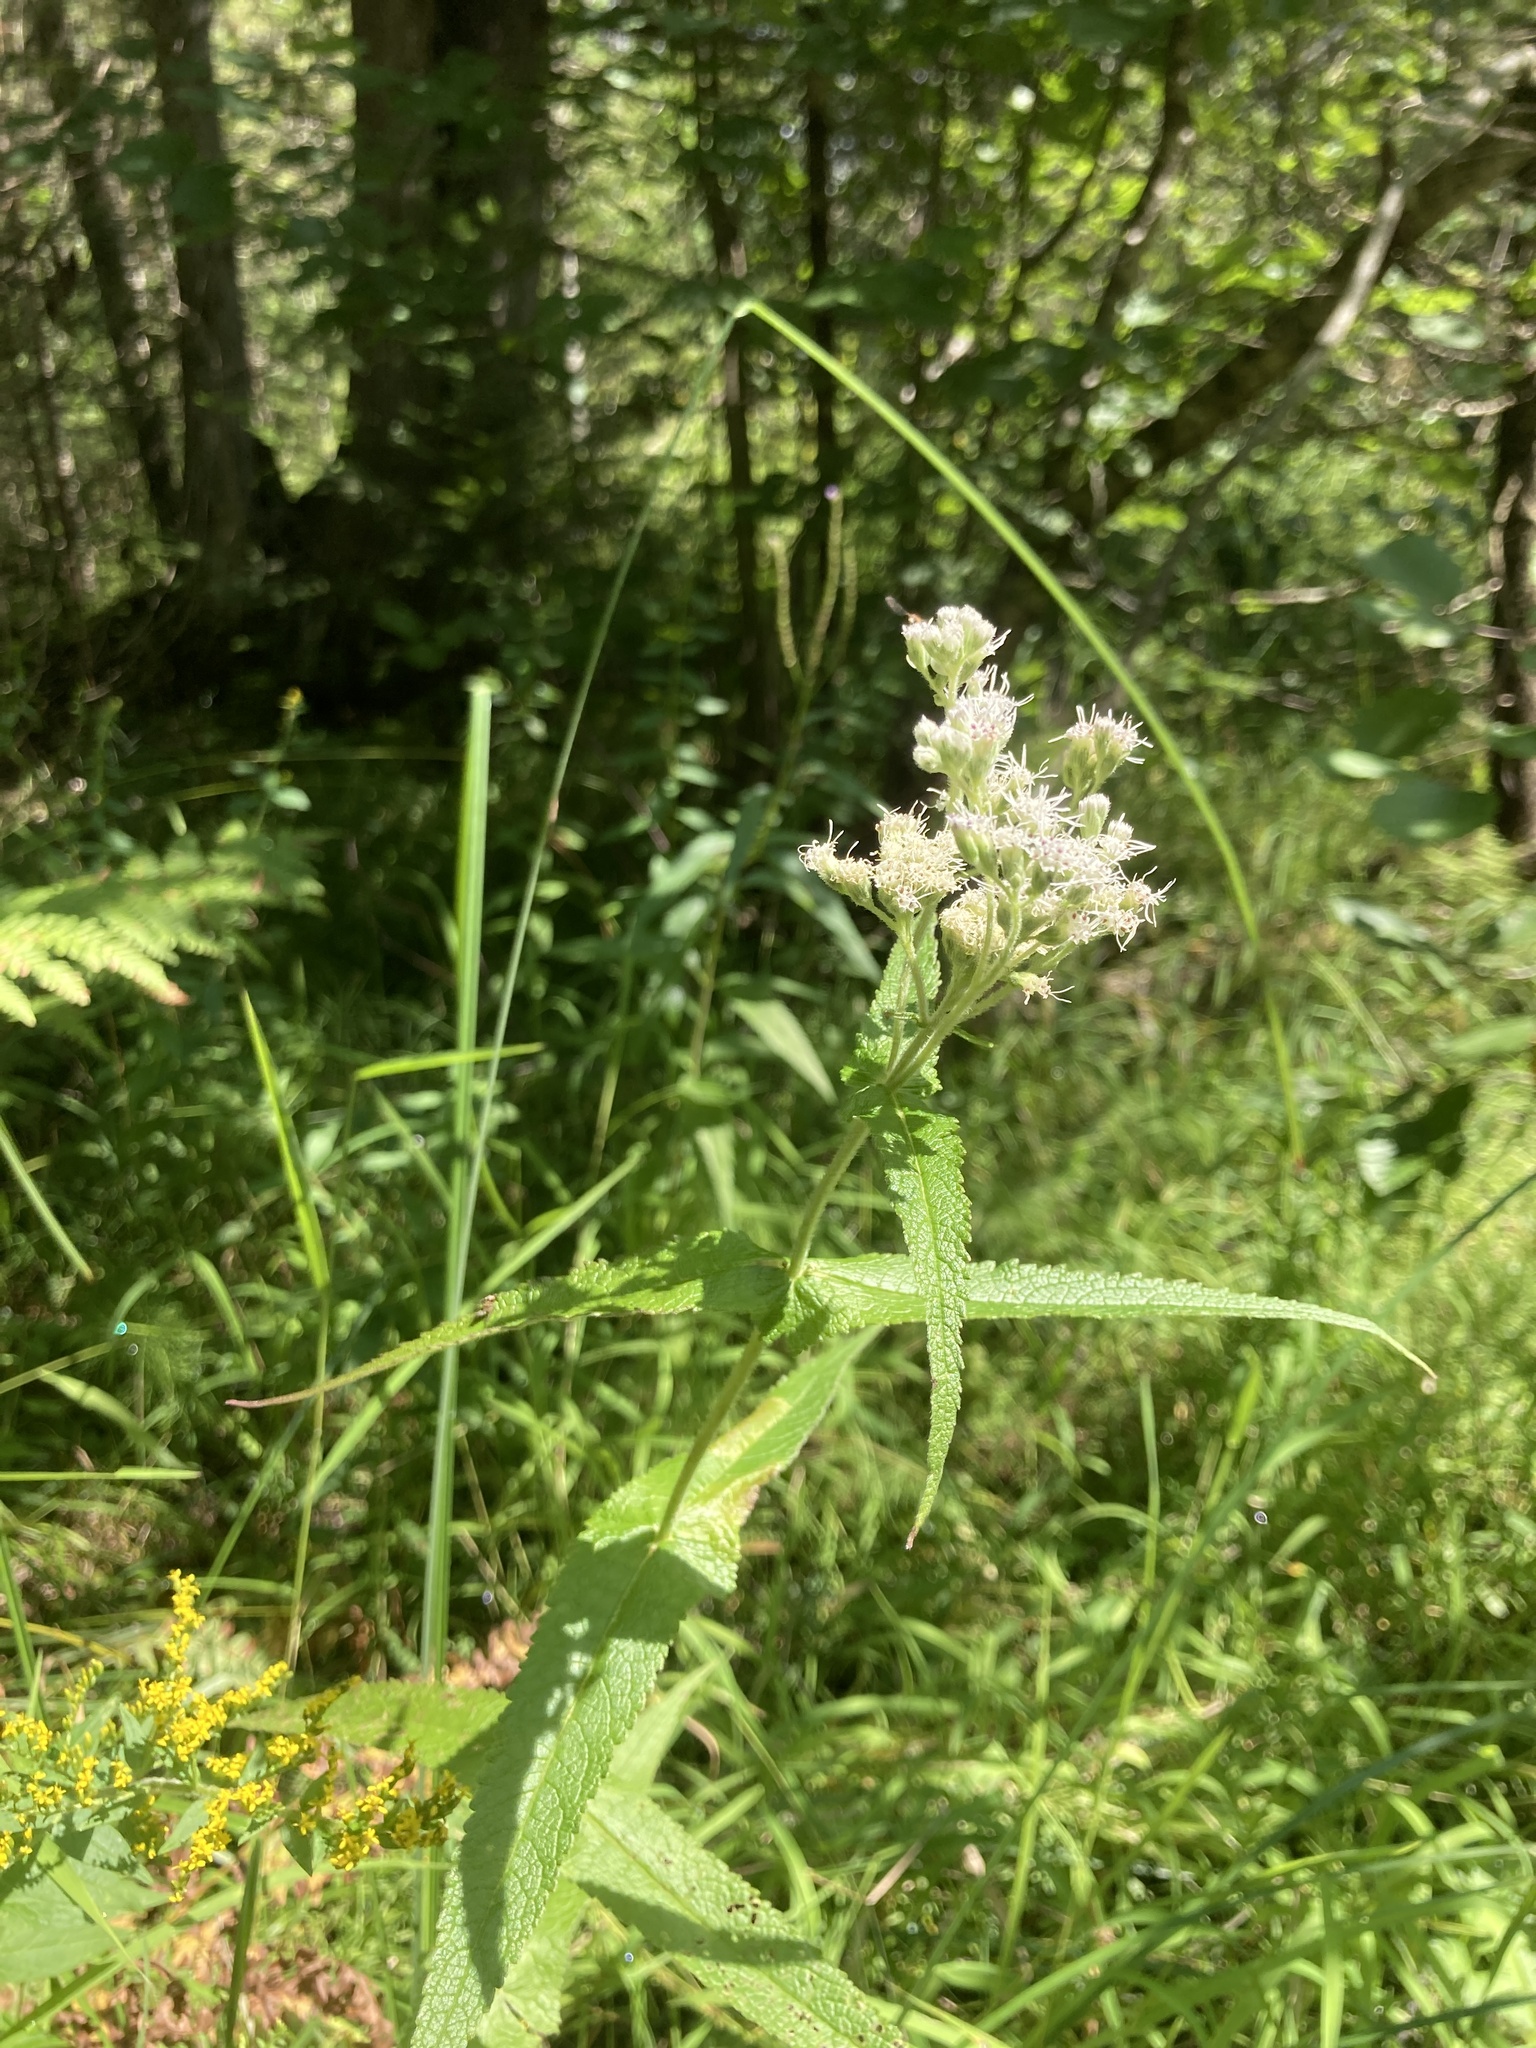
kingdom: Plantae
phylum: Tracheophyta
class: Magnoliopsida
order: Asterales
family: Asteraceae
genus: Eupatorium
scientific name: Eupatorium perfoliatum
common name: Boneset
